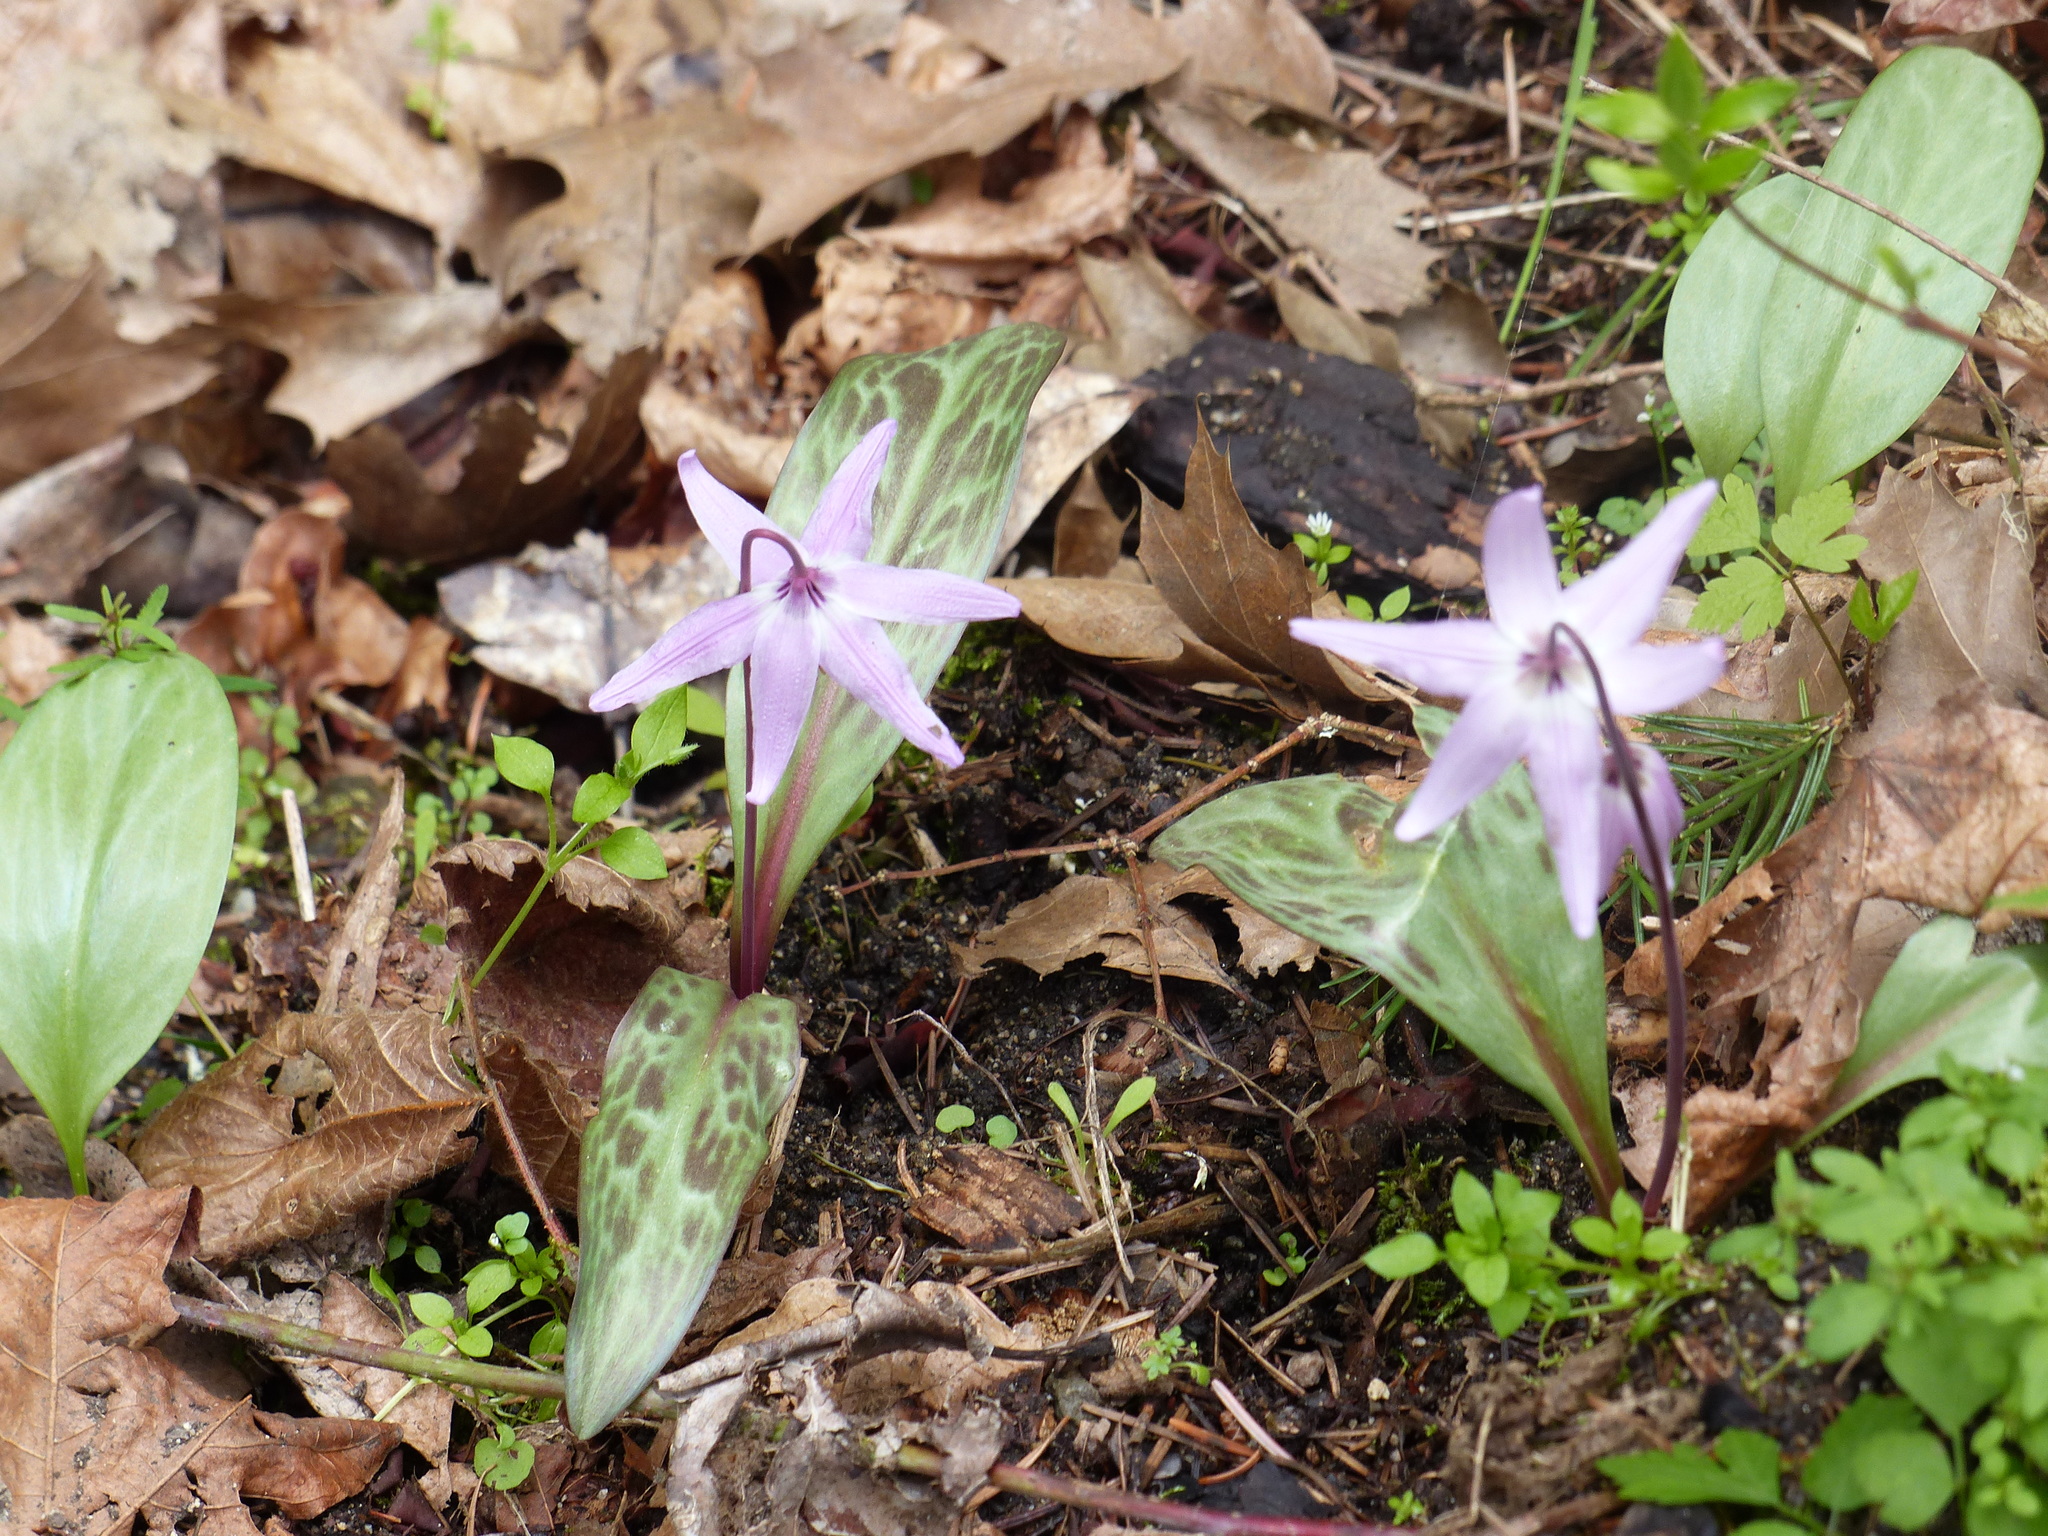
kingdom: Plantae
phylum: Tracheophyta
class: Liliopsida
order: Liliales
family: Liliaceae
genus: Erythronium
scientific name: Erythronium hendersonii
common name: Henderson's fawn-lily
